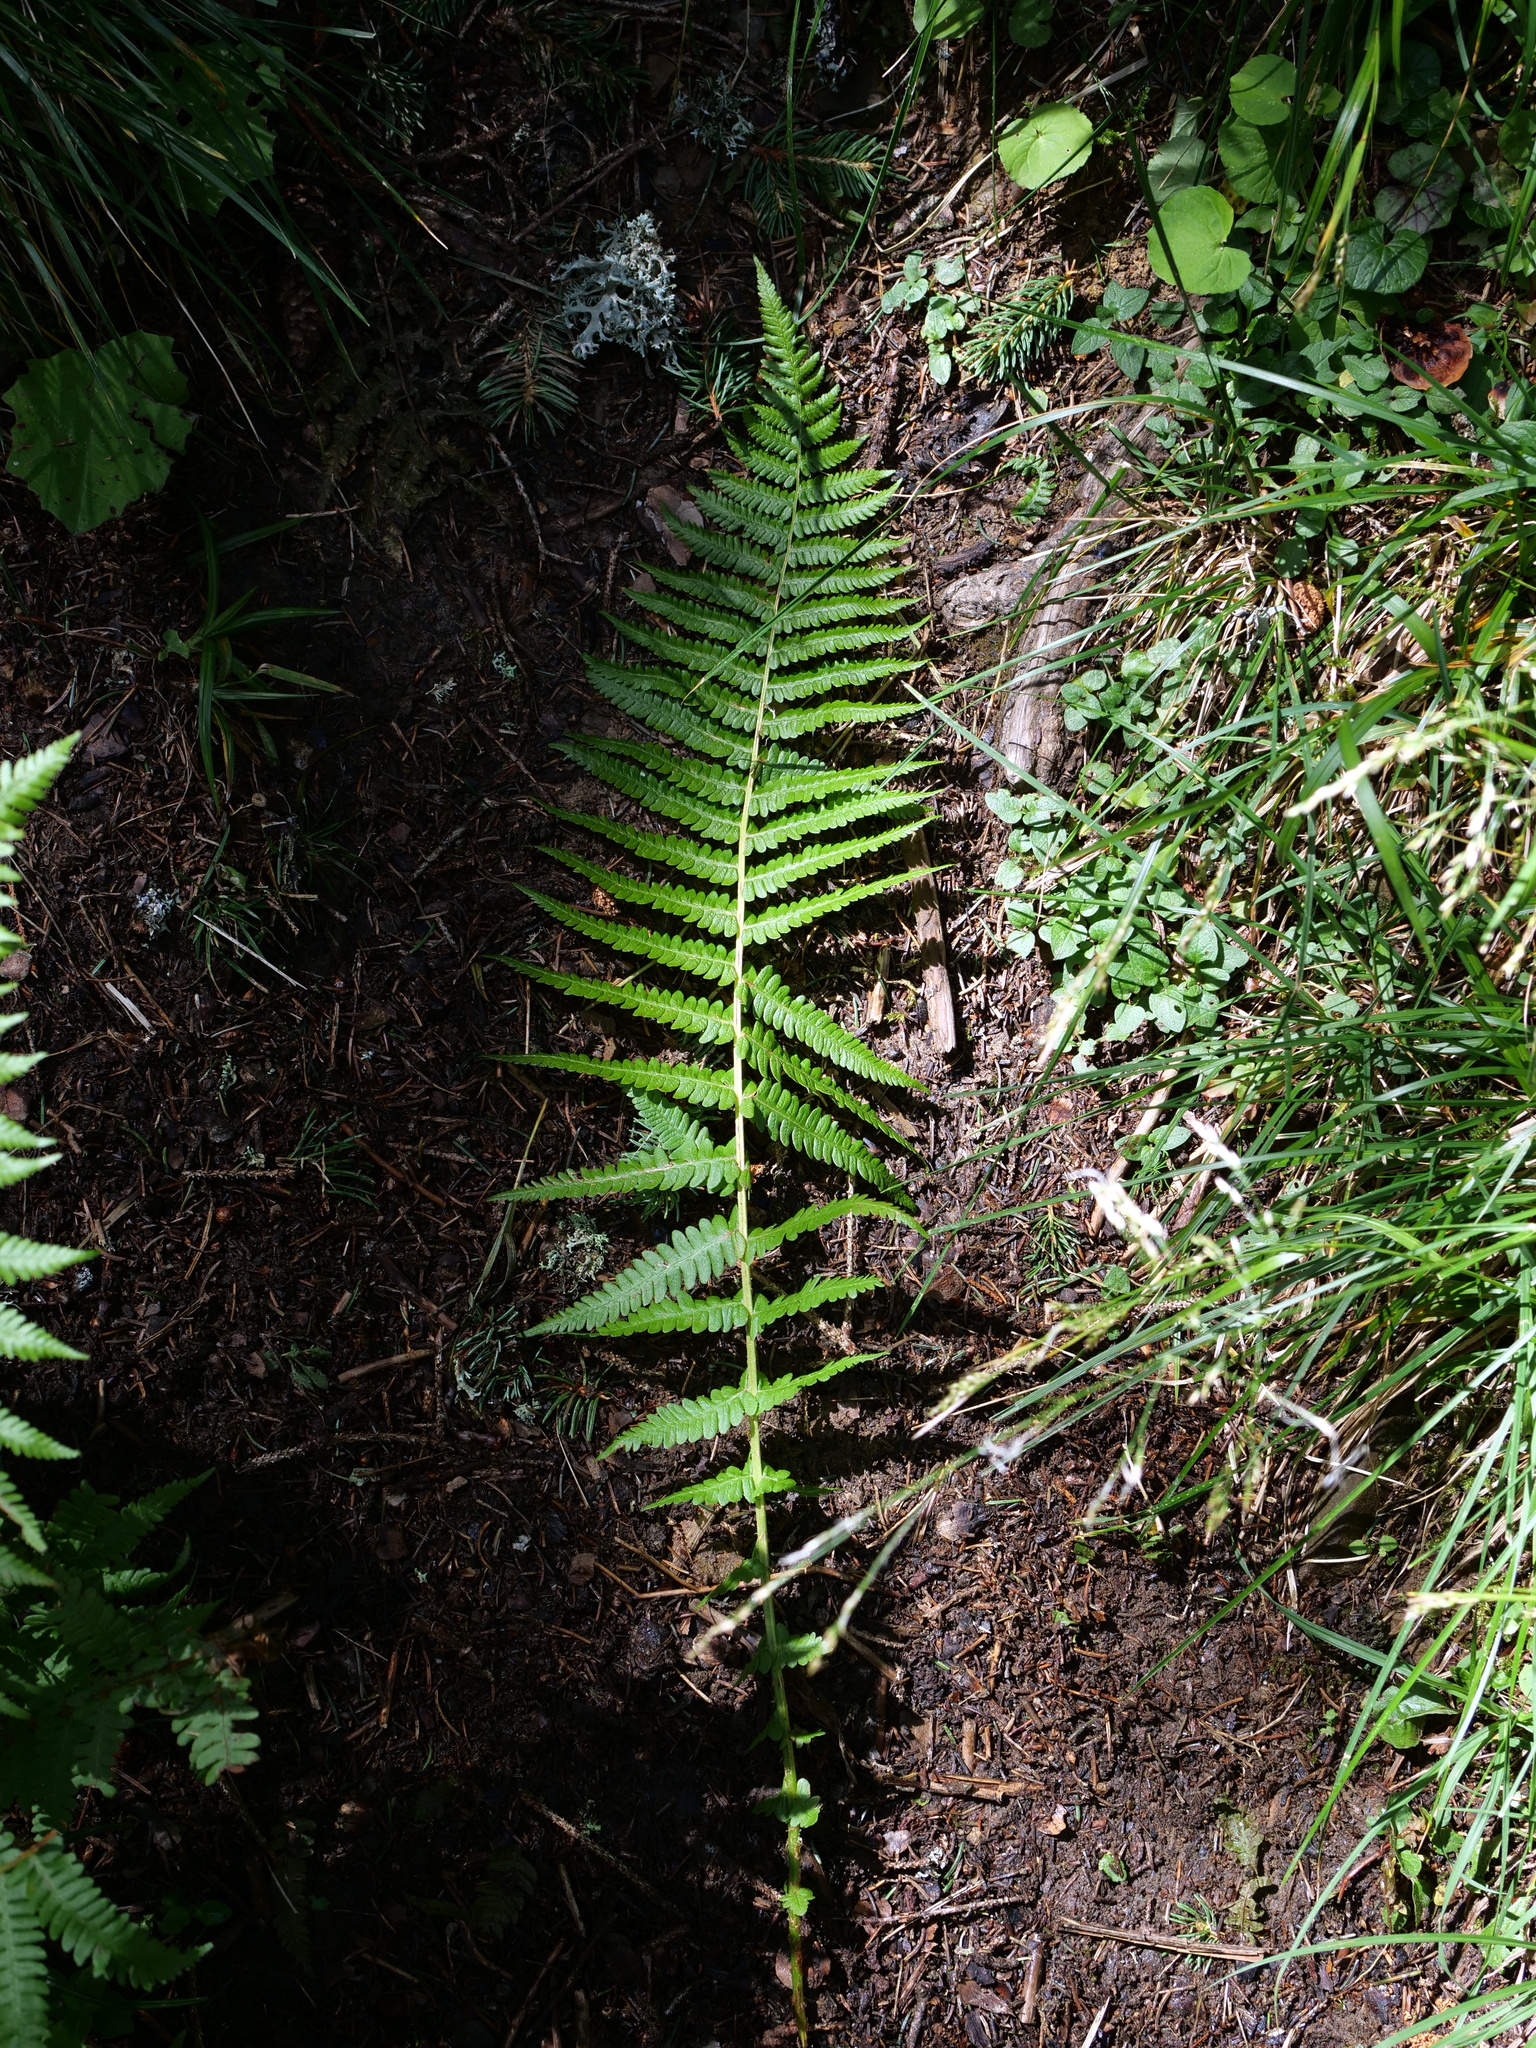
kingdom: Plantae
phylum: Tracheophyta
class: Polypodiopsida
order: Polypodiales
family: Thelypteridaceae
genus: Oreopteris
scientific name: Oreopteris limbosperma
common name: Lemon-scented fern
